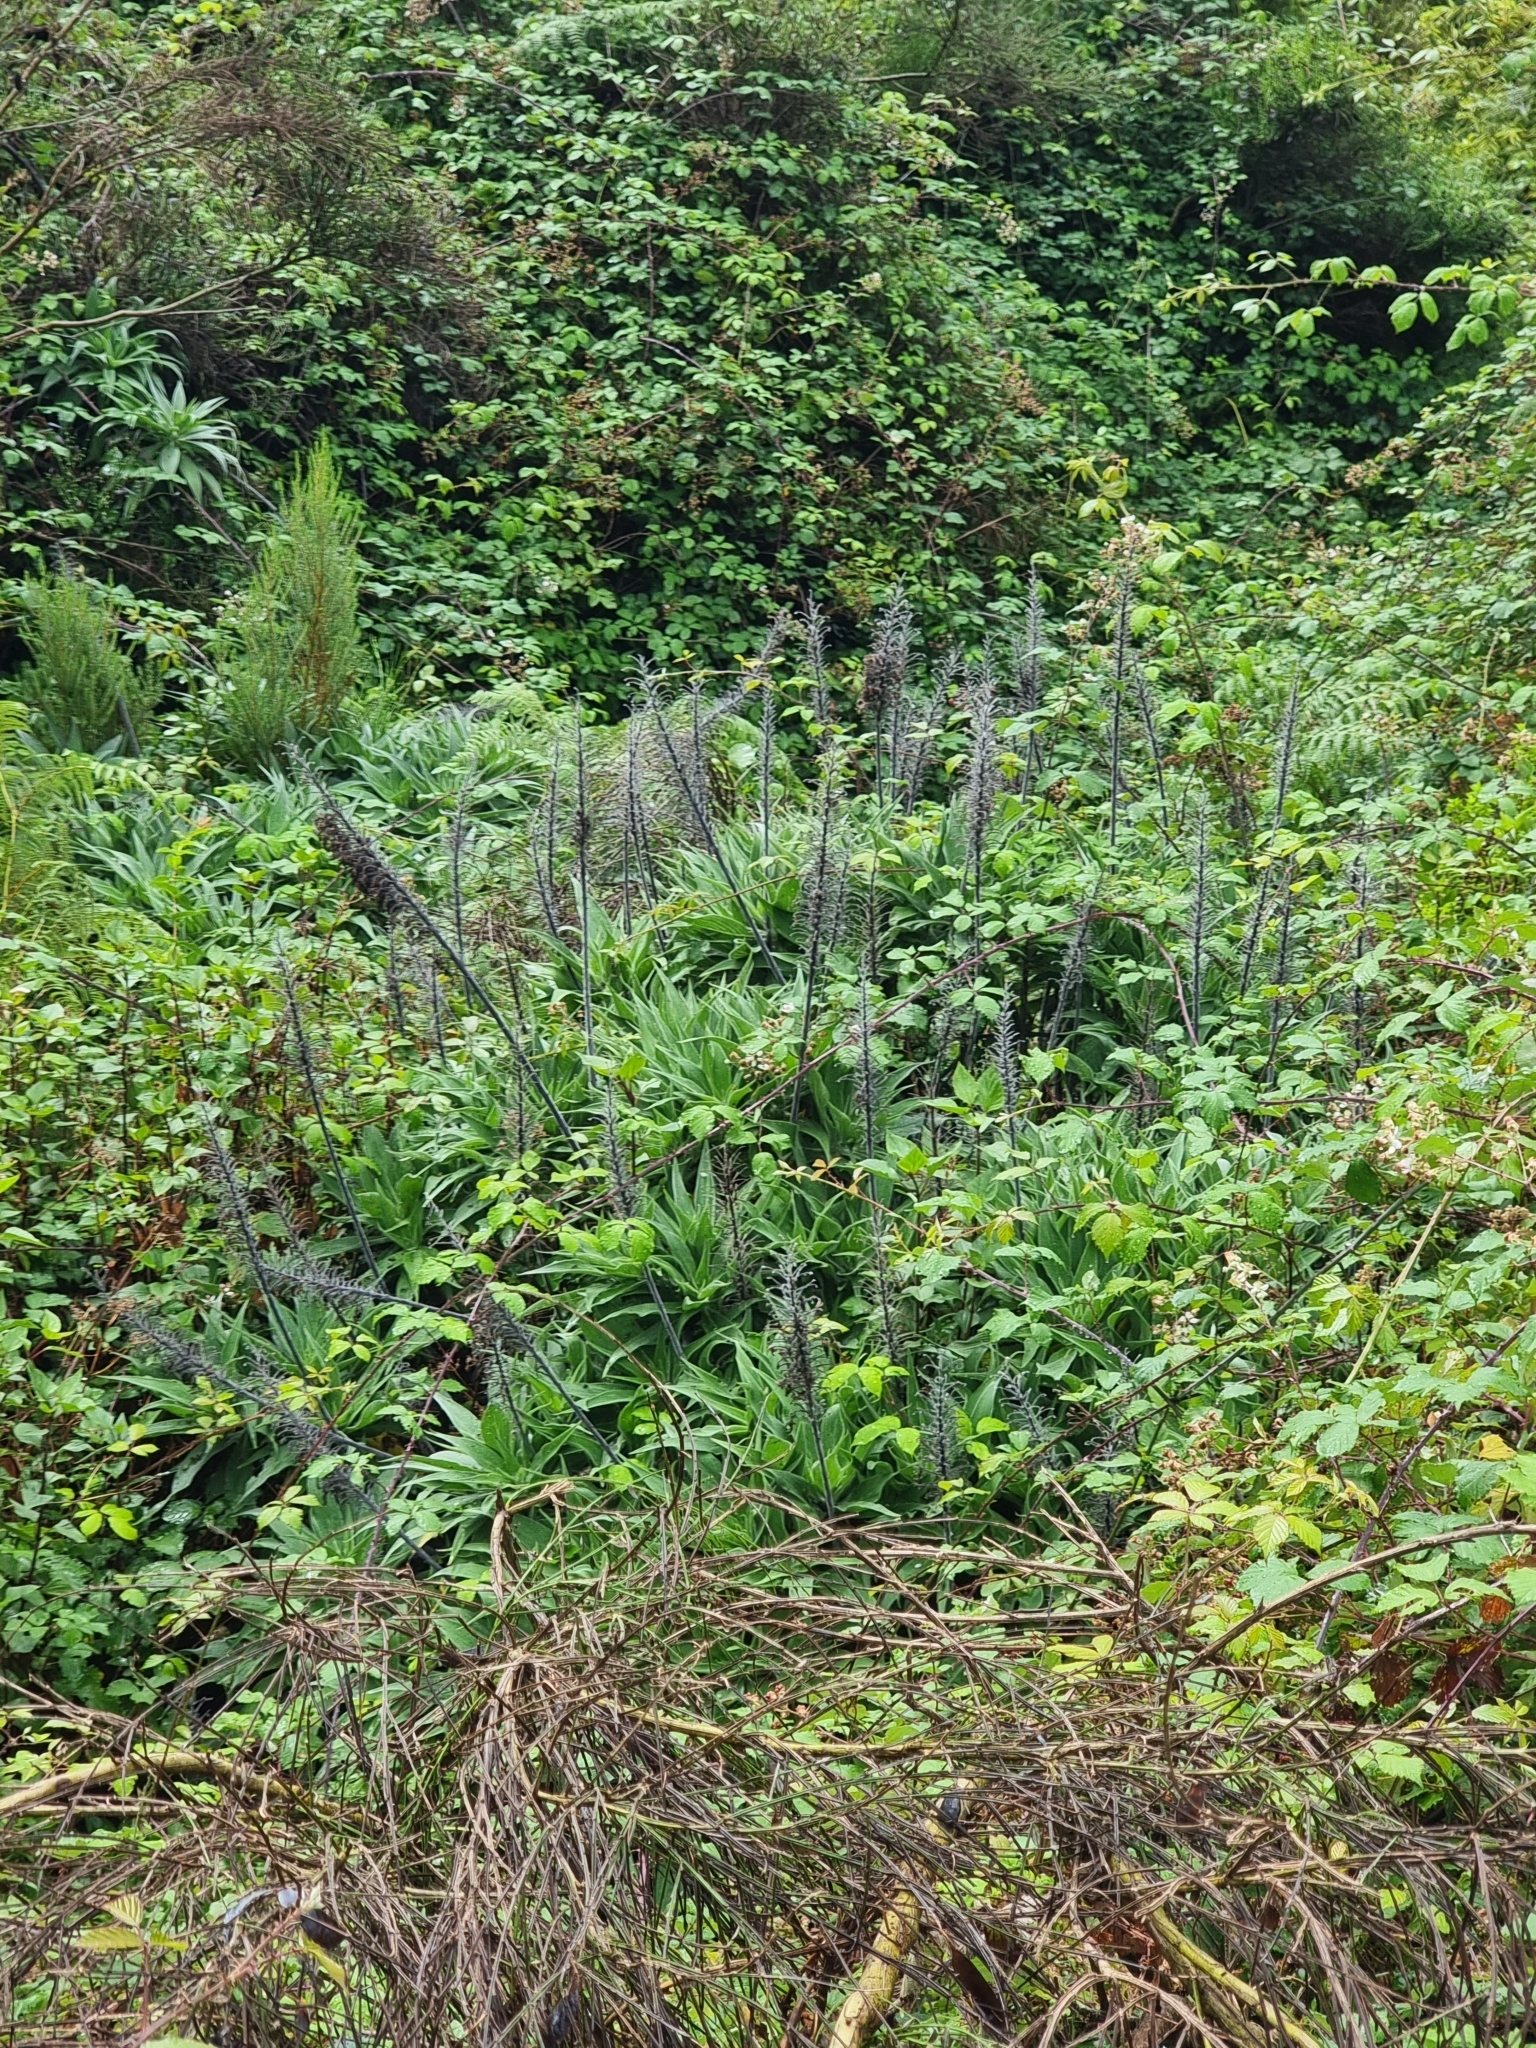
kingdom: Plantae
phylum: Tracheophyta
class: Magnoliopsida
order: Boraginales
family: Boraginaceae
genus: Echium
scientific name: Echium candicans
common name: Pride of madeira
